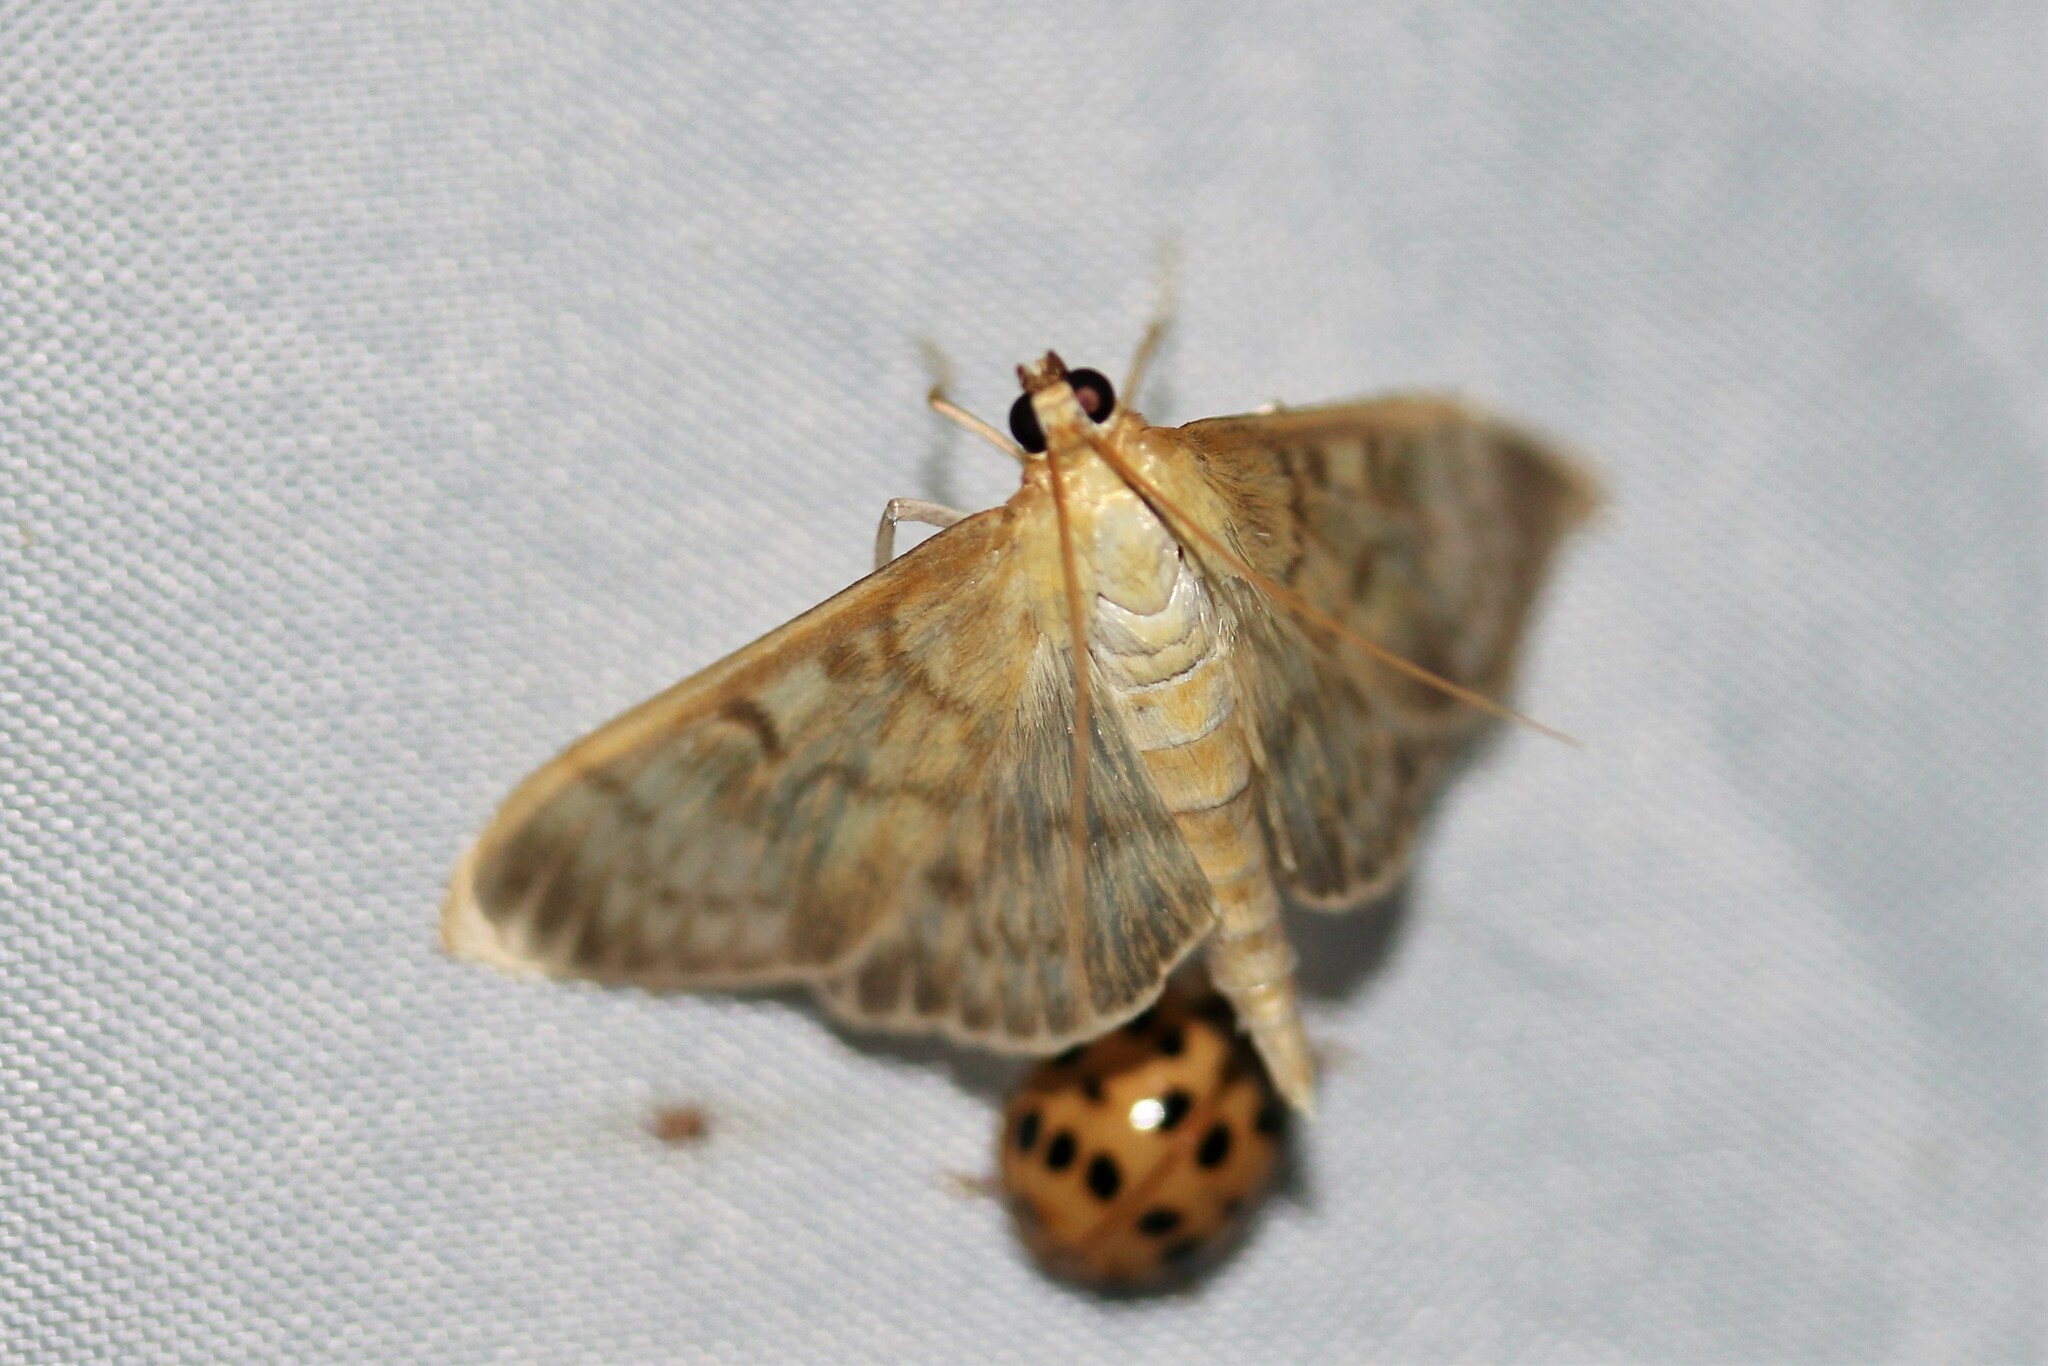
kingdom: Animalia
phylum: Arthropoda
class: Insecta
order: Lepidoptera
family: Crambidae
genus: Patania
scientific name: Patania ruralis
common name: Mother of pearl
